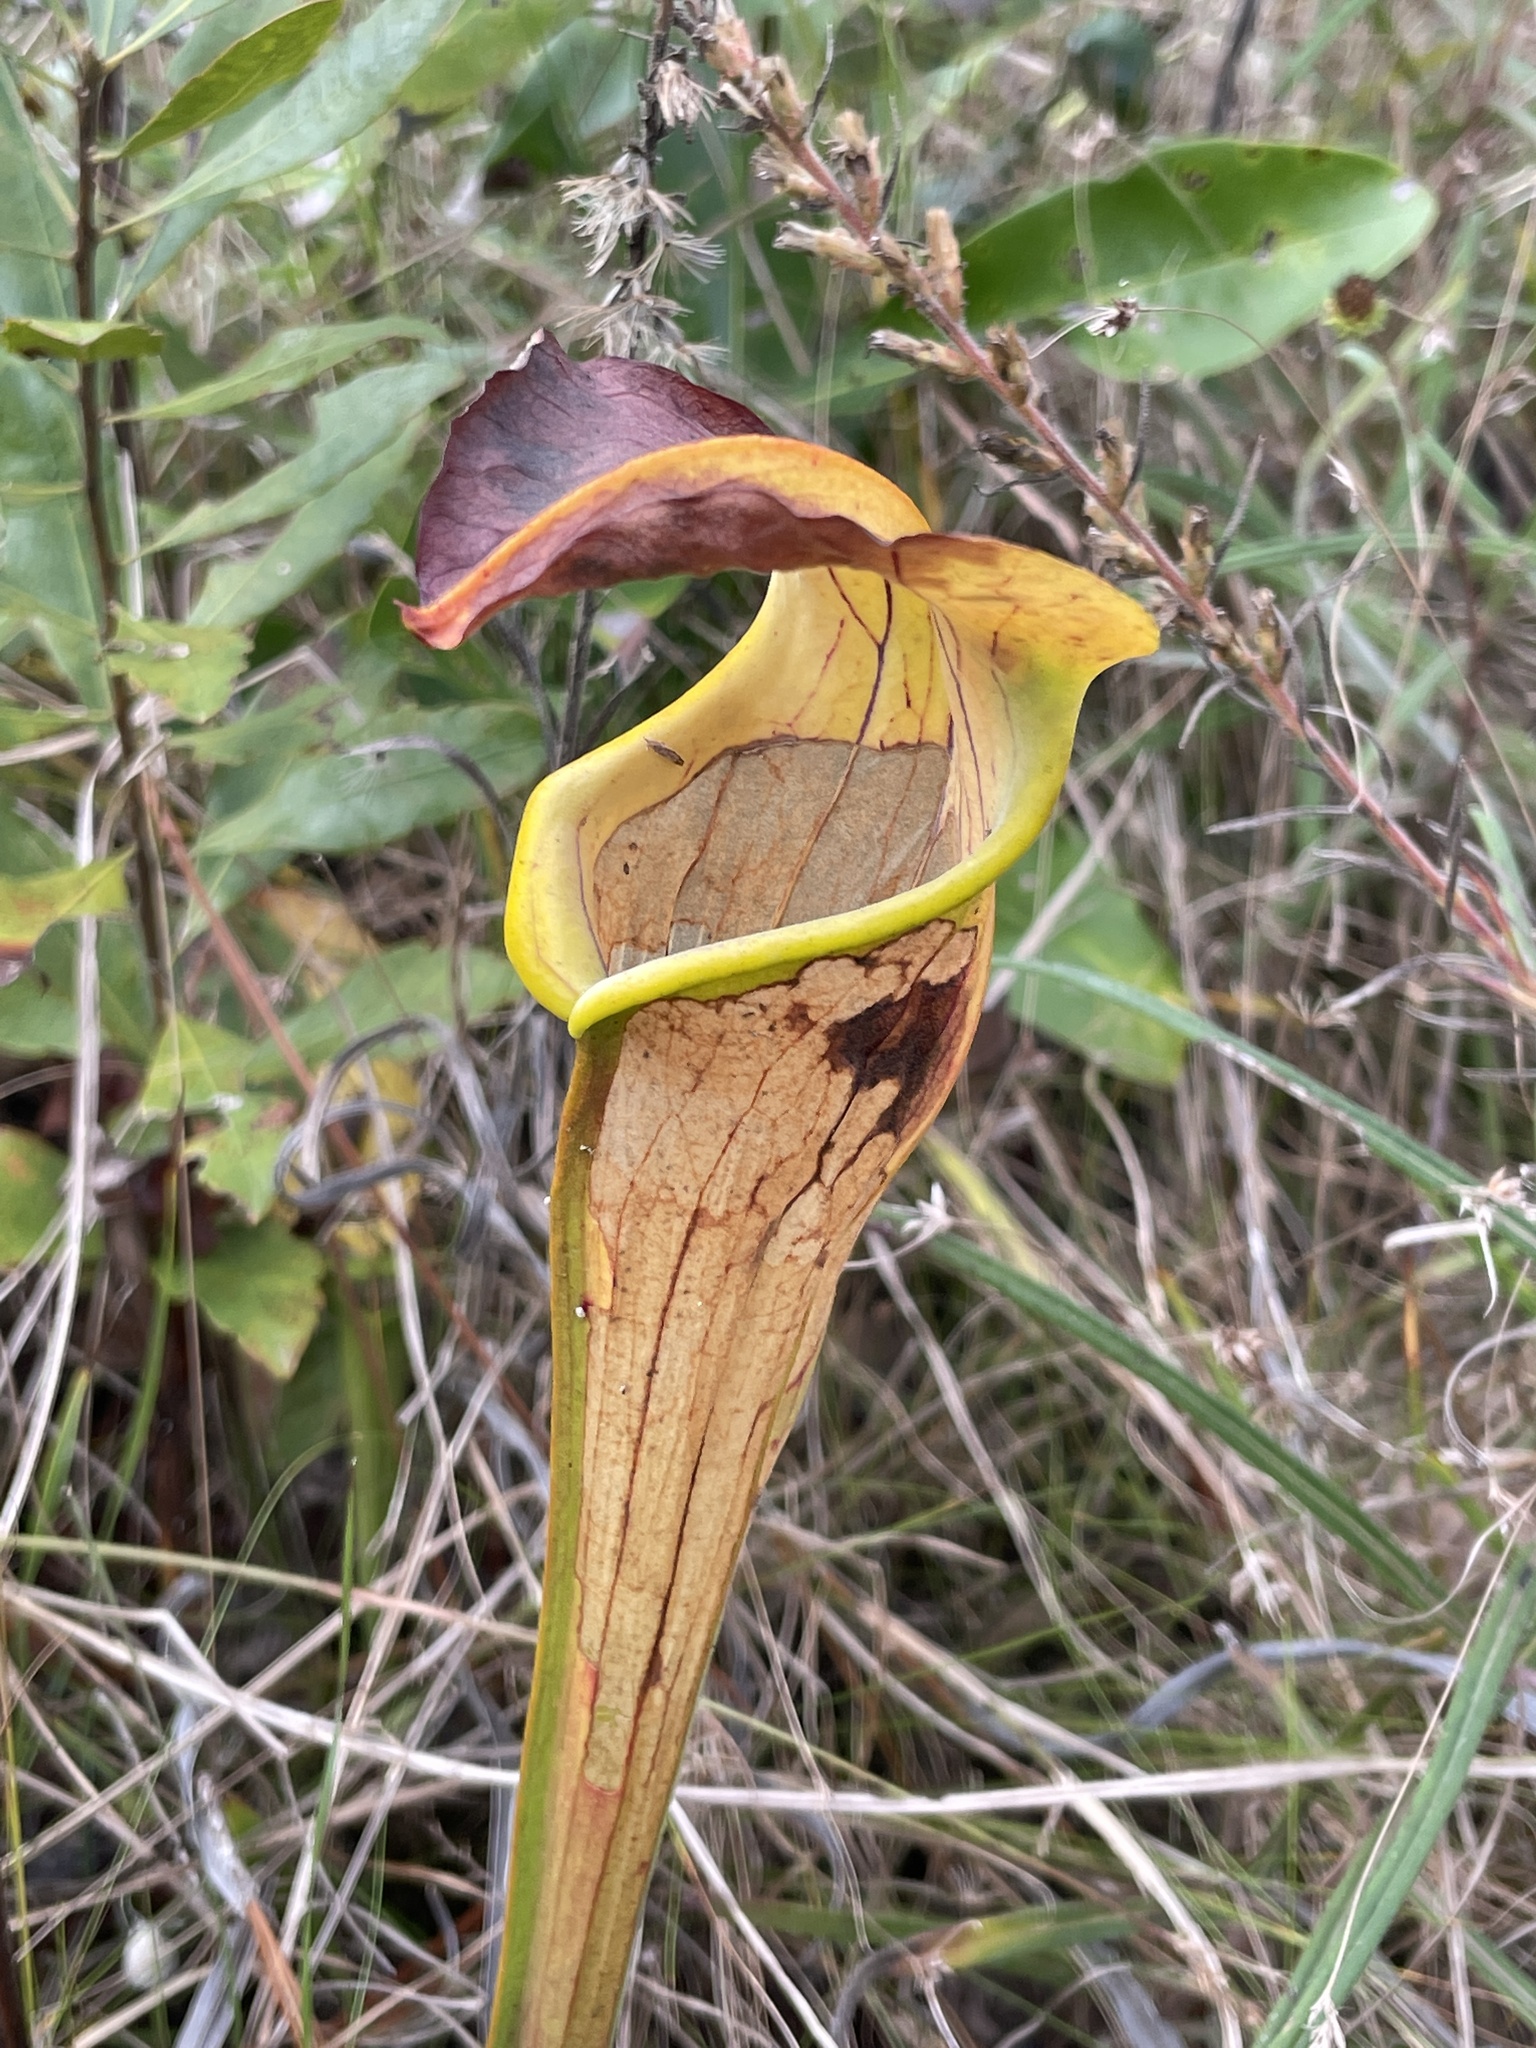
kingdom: Plantae
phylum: Tracheophyta
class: Magnoliopsida
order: Ericales
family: Sarraceniaceae
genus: Sarracenia
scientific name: Sarracenia alata
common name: Yellow trumpets
